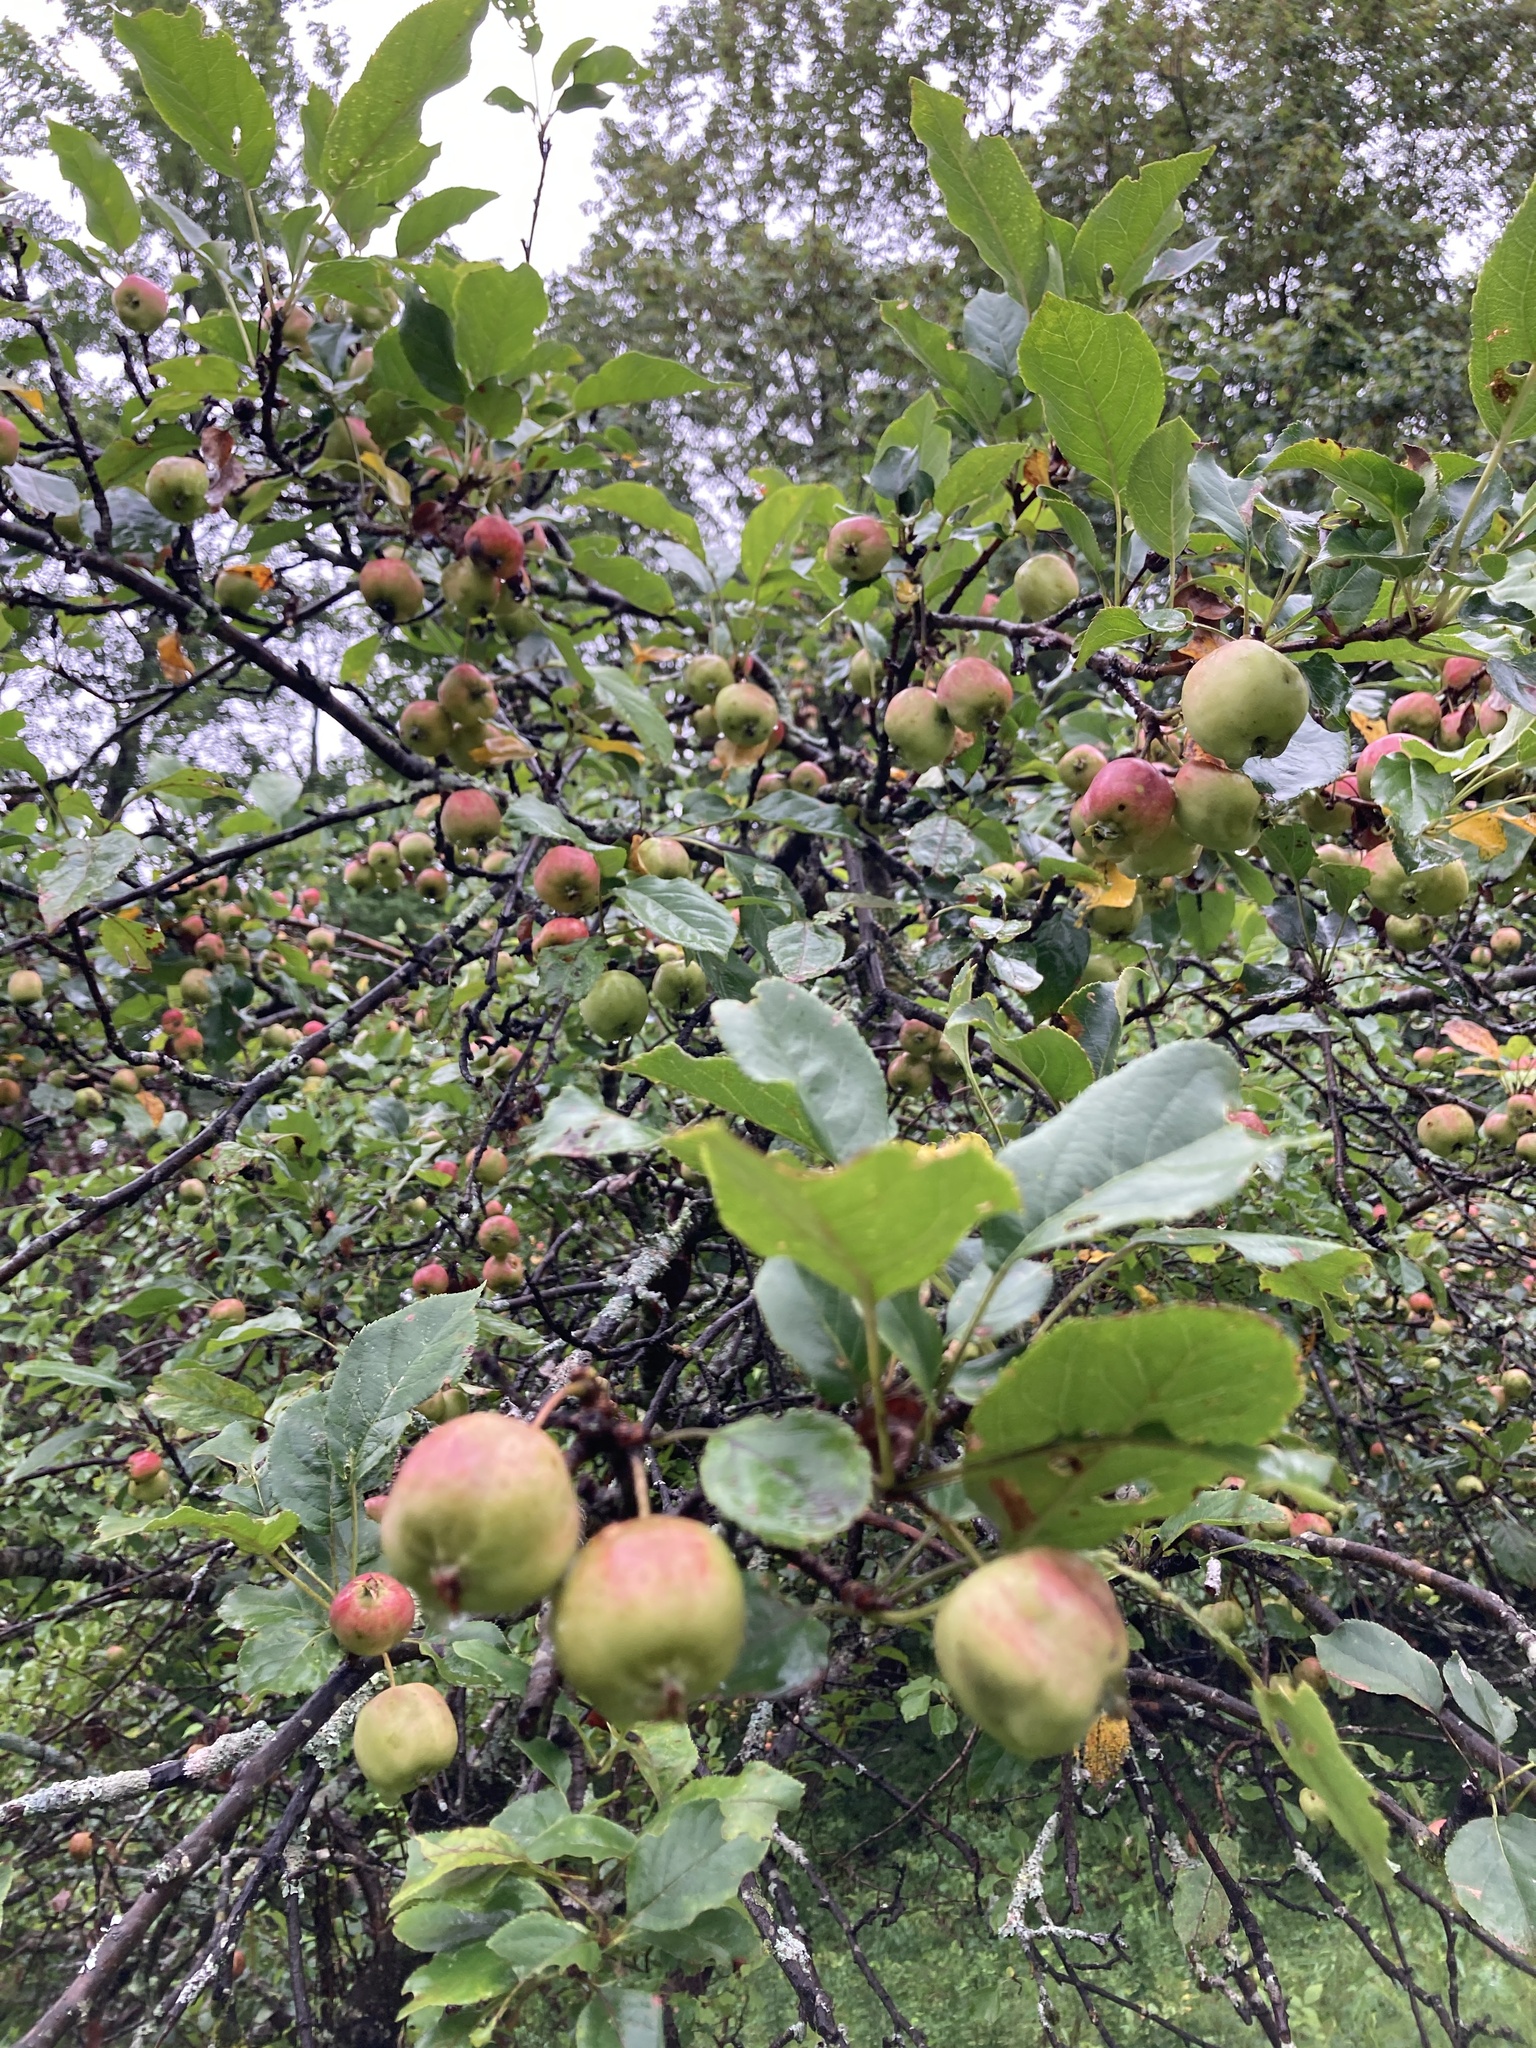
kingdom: Plantae
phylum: Tracheophyta
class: Magnoliopsida
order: Rosales
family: Rosaceae
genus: Malus
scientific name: Malus domestica
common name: Apple
